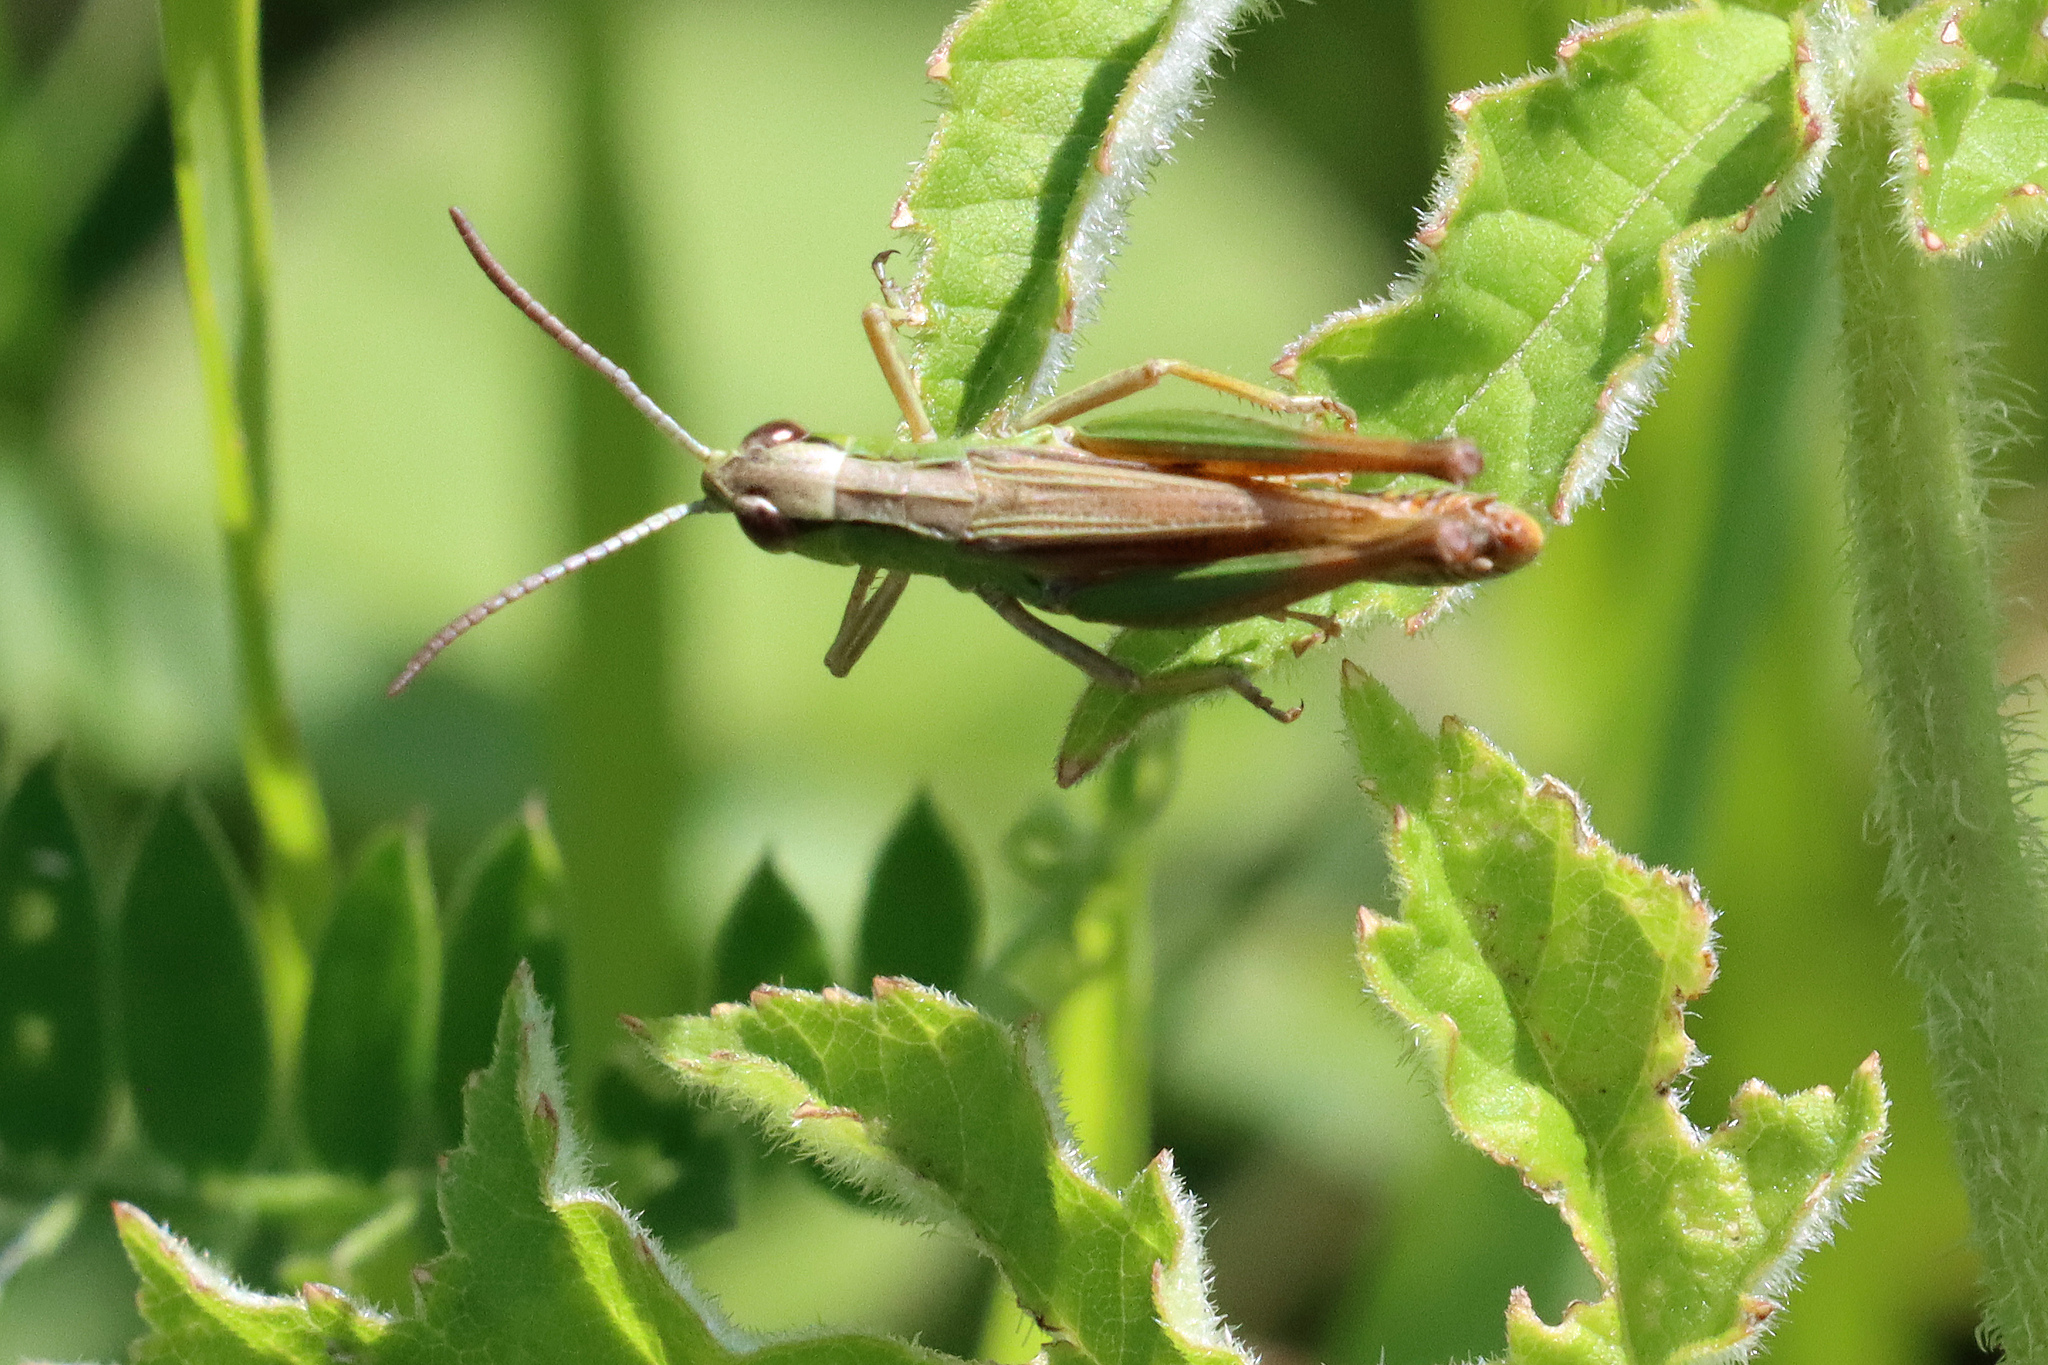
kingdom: Animalia
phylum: Arthropoda
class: Insecta
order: Orthoptera
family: Acrididae
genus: Pseudochorthippus
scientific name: Pseudochorthippus parallelus
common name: Meadow grasshopper
